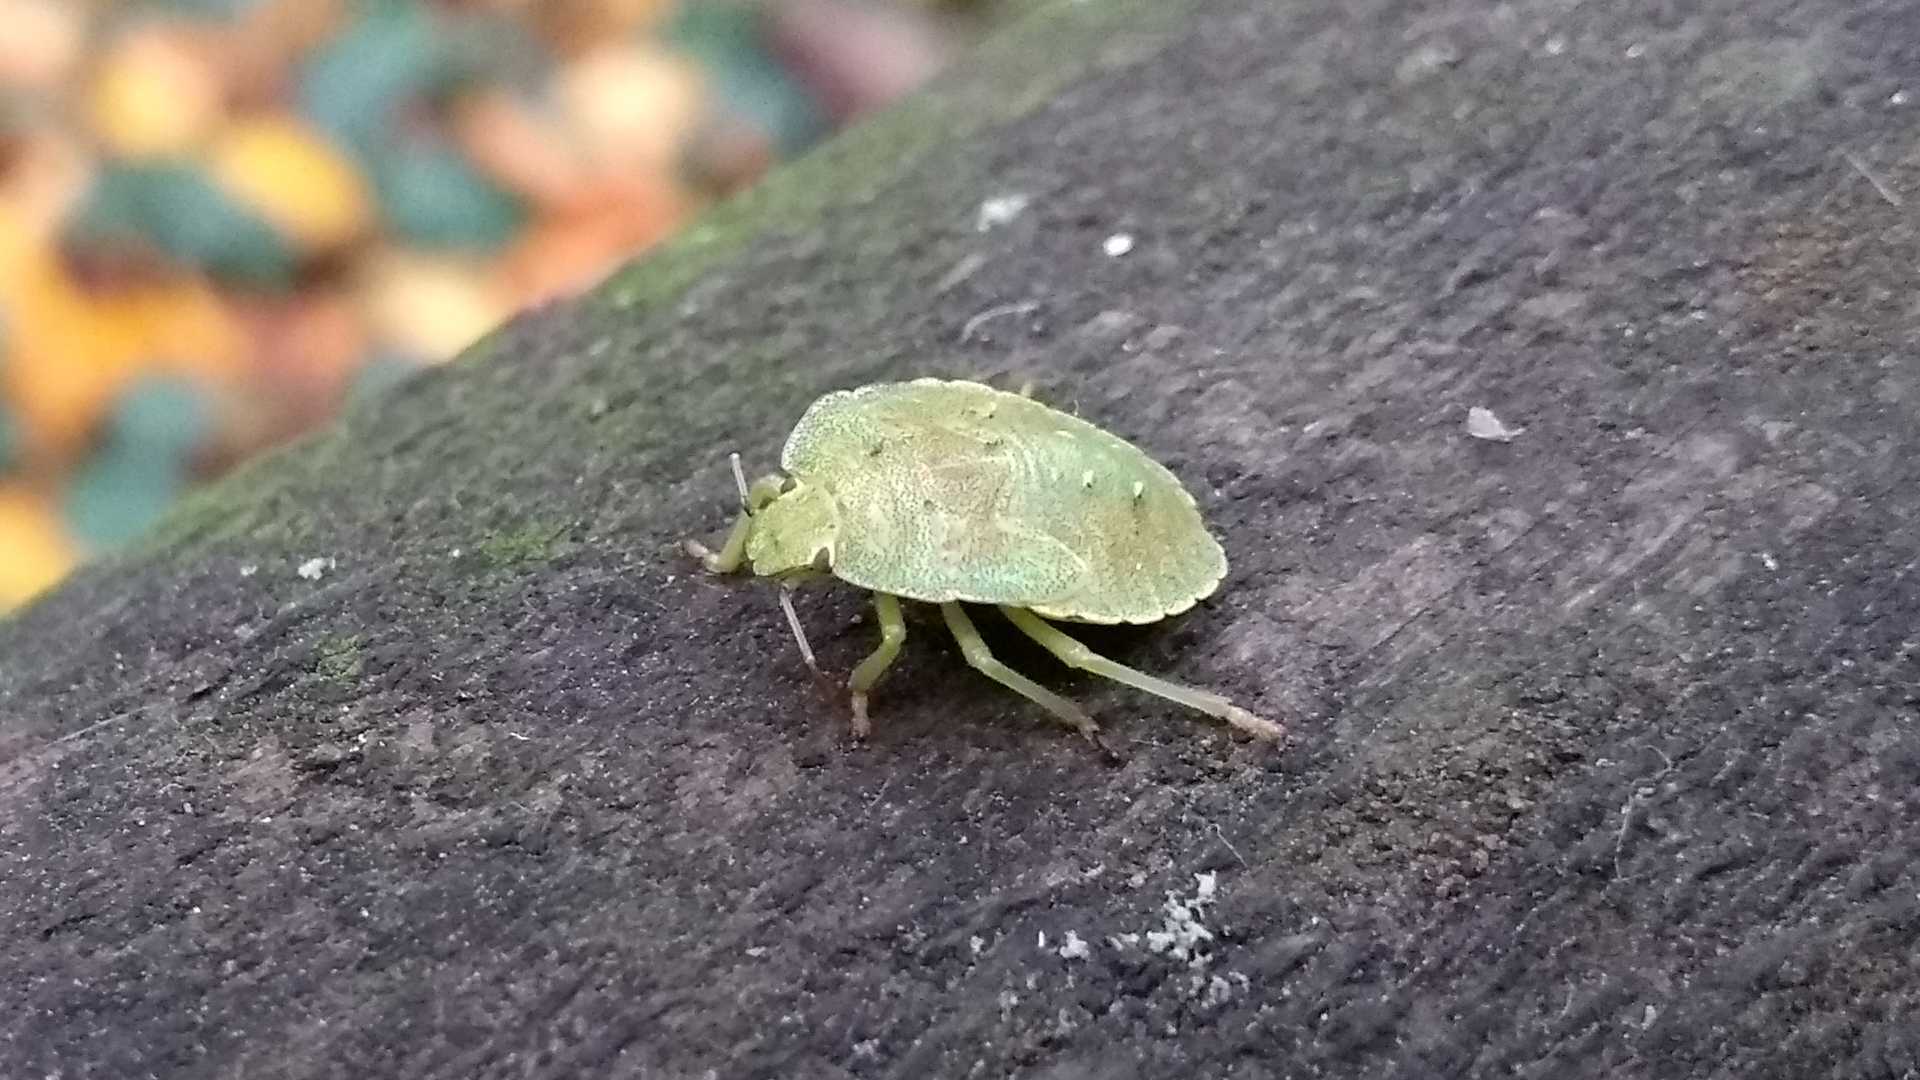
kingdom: Animalia
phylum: Arthropoda
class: Insecta
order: Hemiptera
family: Pentatomidae
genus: Palomena
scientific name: Palomena prasina
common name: Green shieldbug
